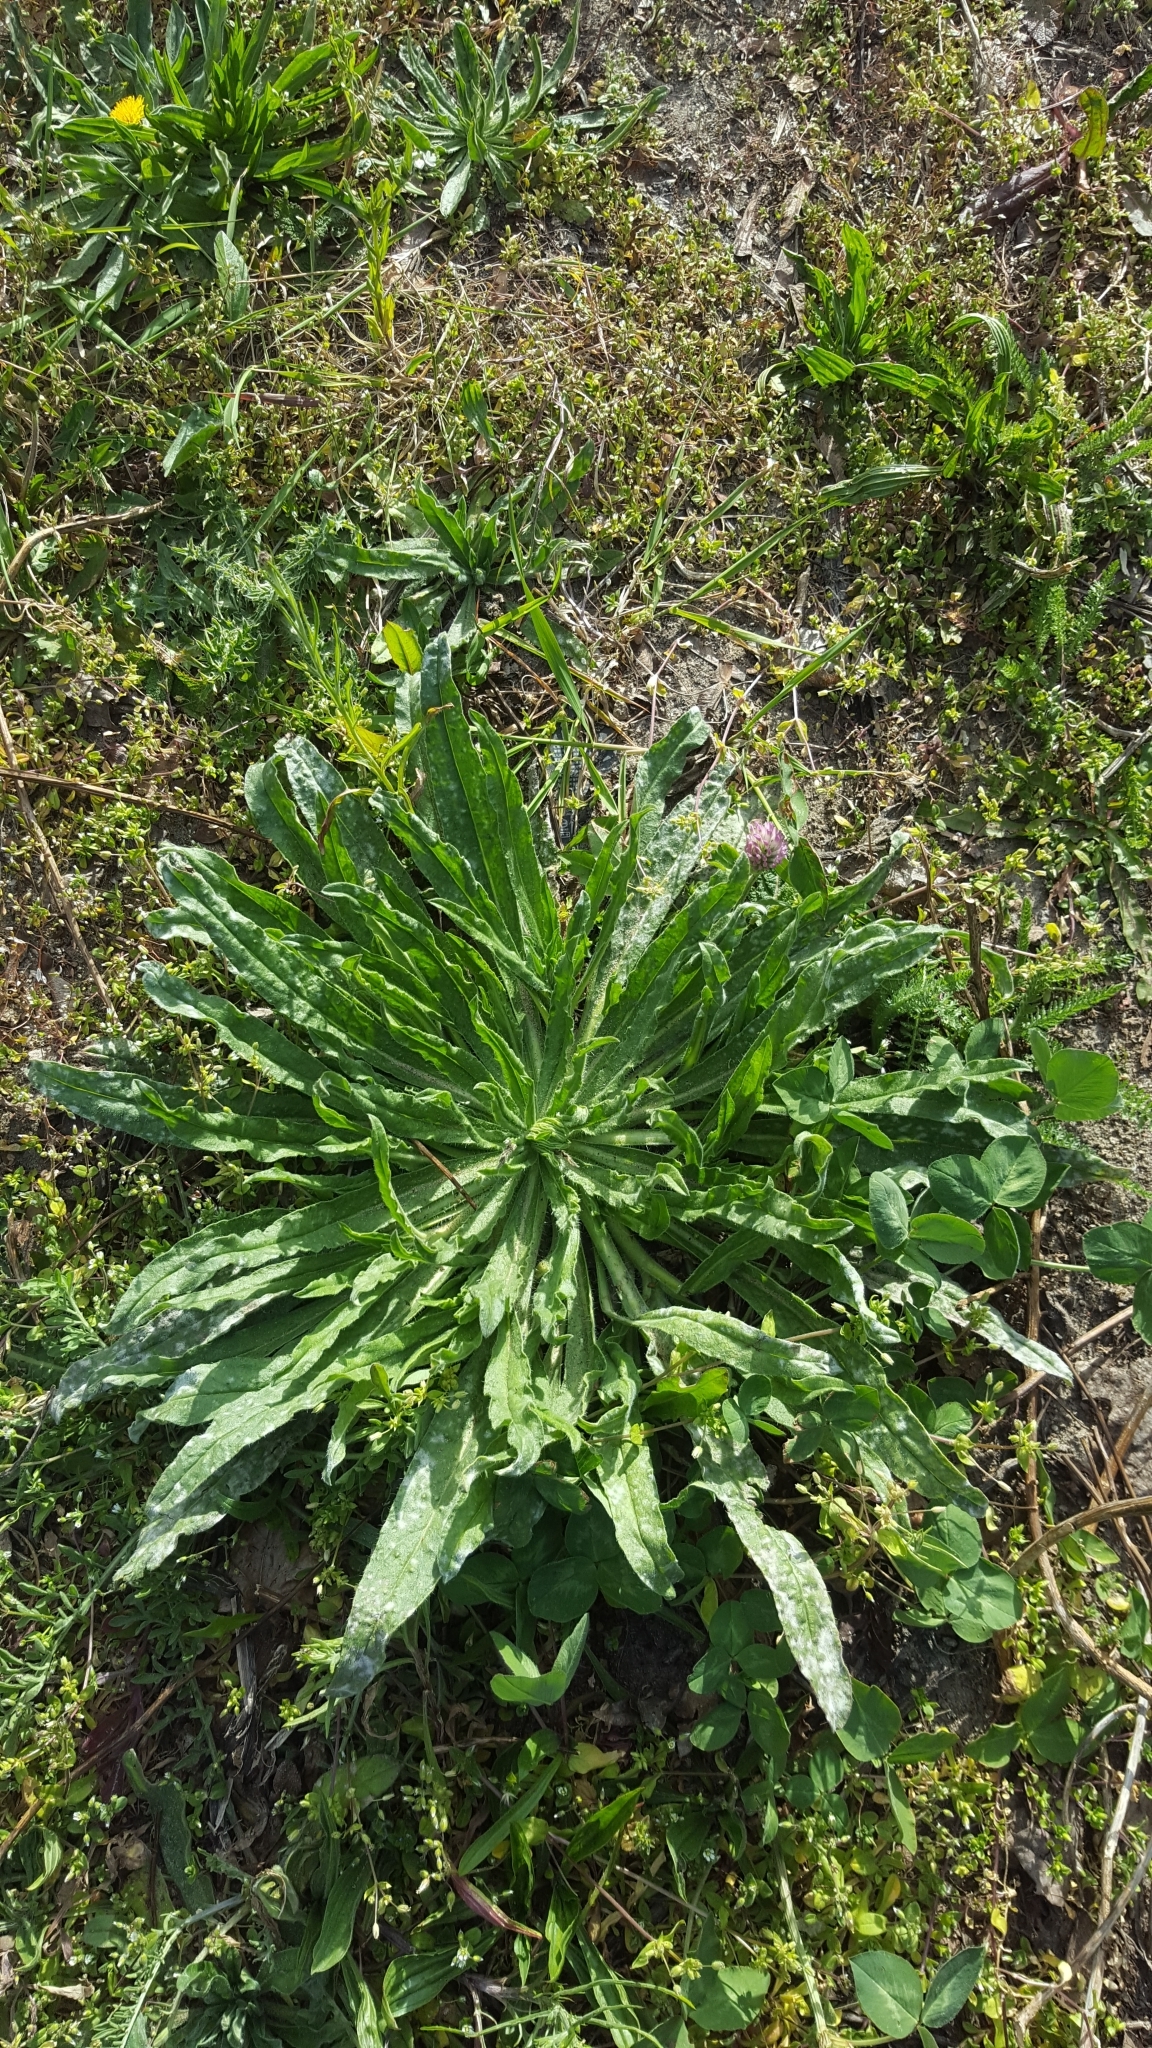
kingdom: Plantae
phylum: Tracheophyta
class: Magnoliopsida
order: Boraginales
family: Boraginaceae
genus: Echium
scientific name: Echium vulgare
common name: Common viper's bugloss
